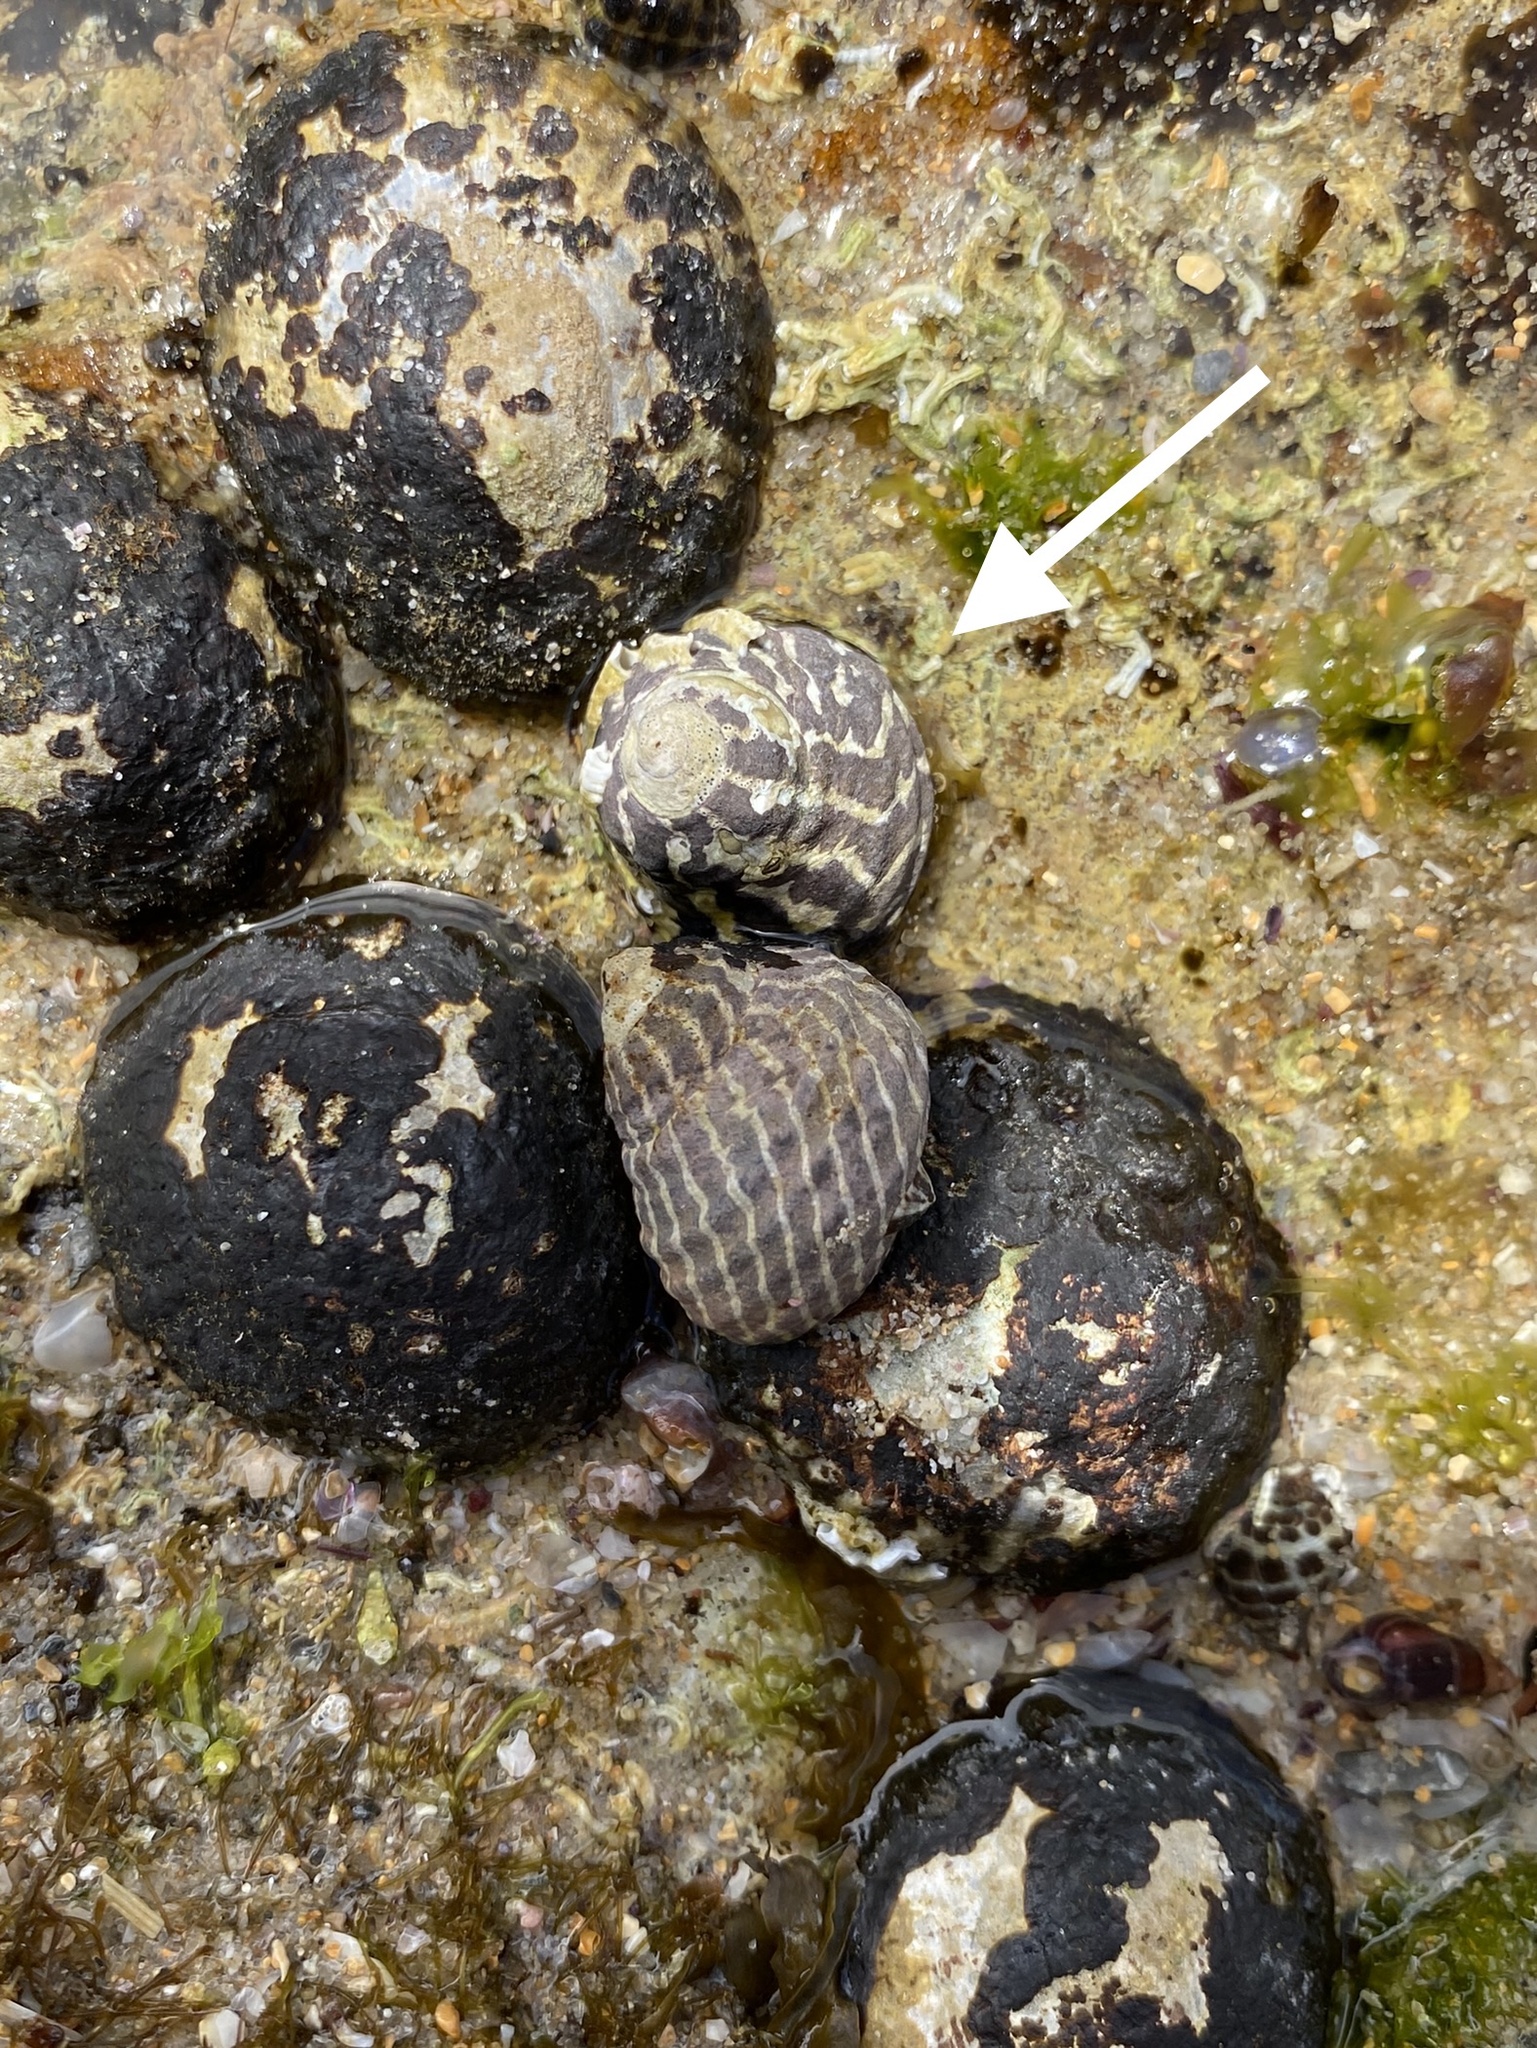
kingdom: Animalia
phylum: Mollusca
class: Gastropoda
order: Trochida
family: Trochidae
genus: Austrocochlea
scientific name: Austrocochlea porcata
